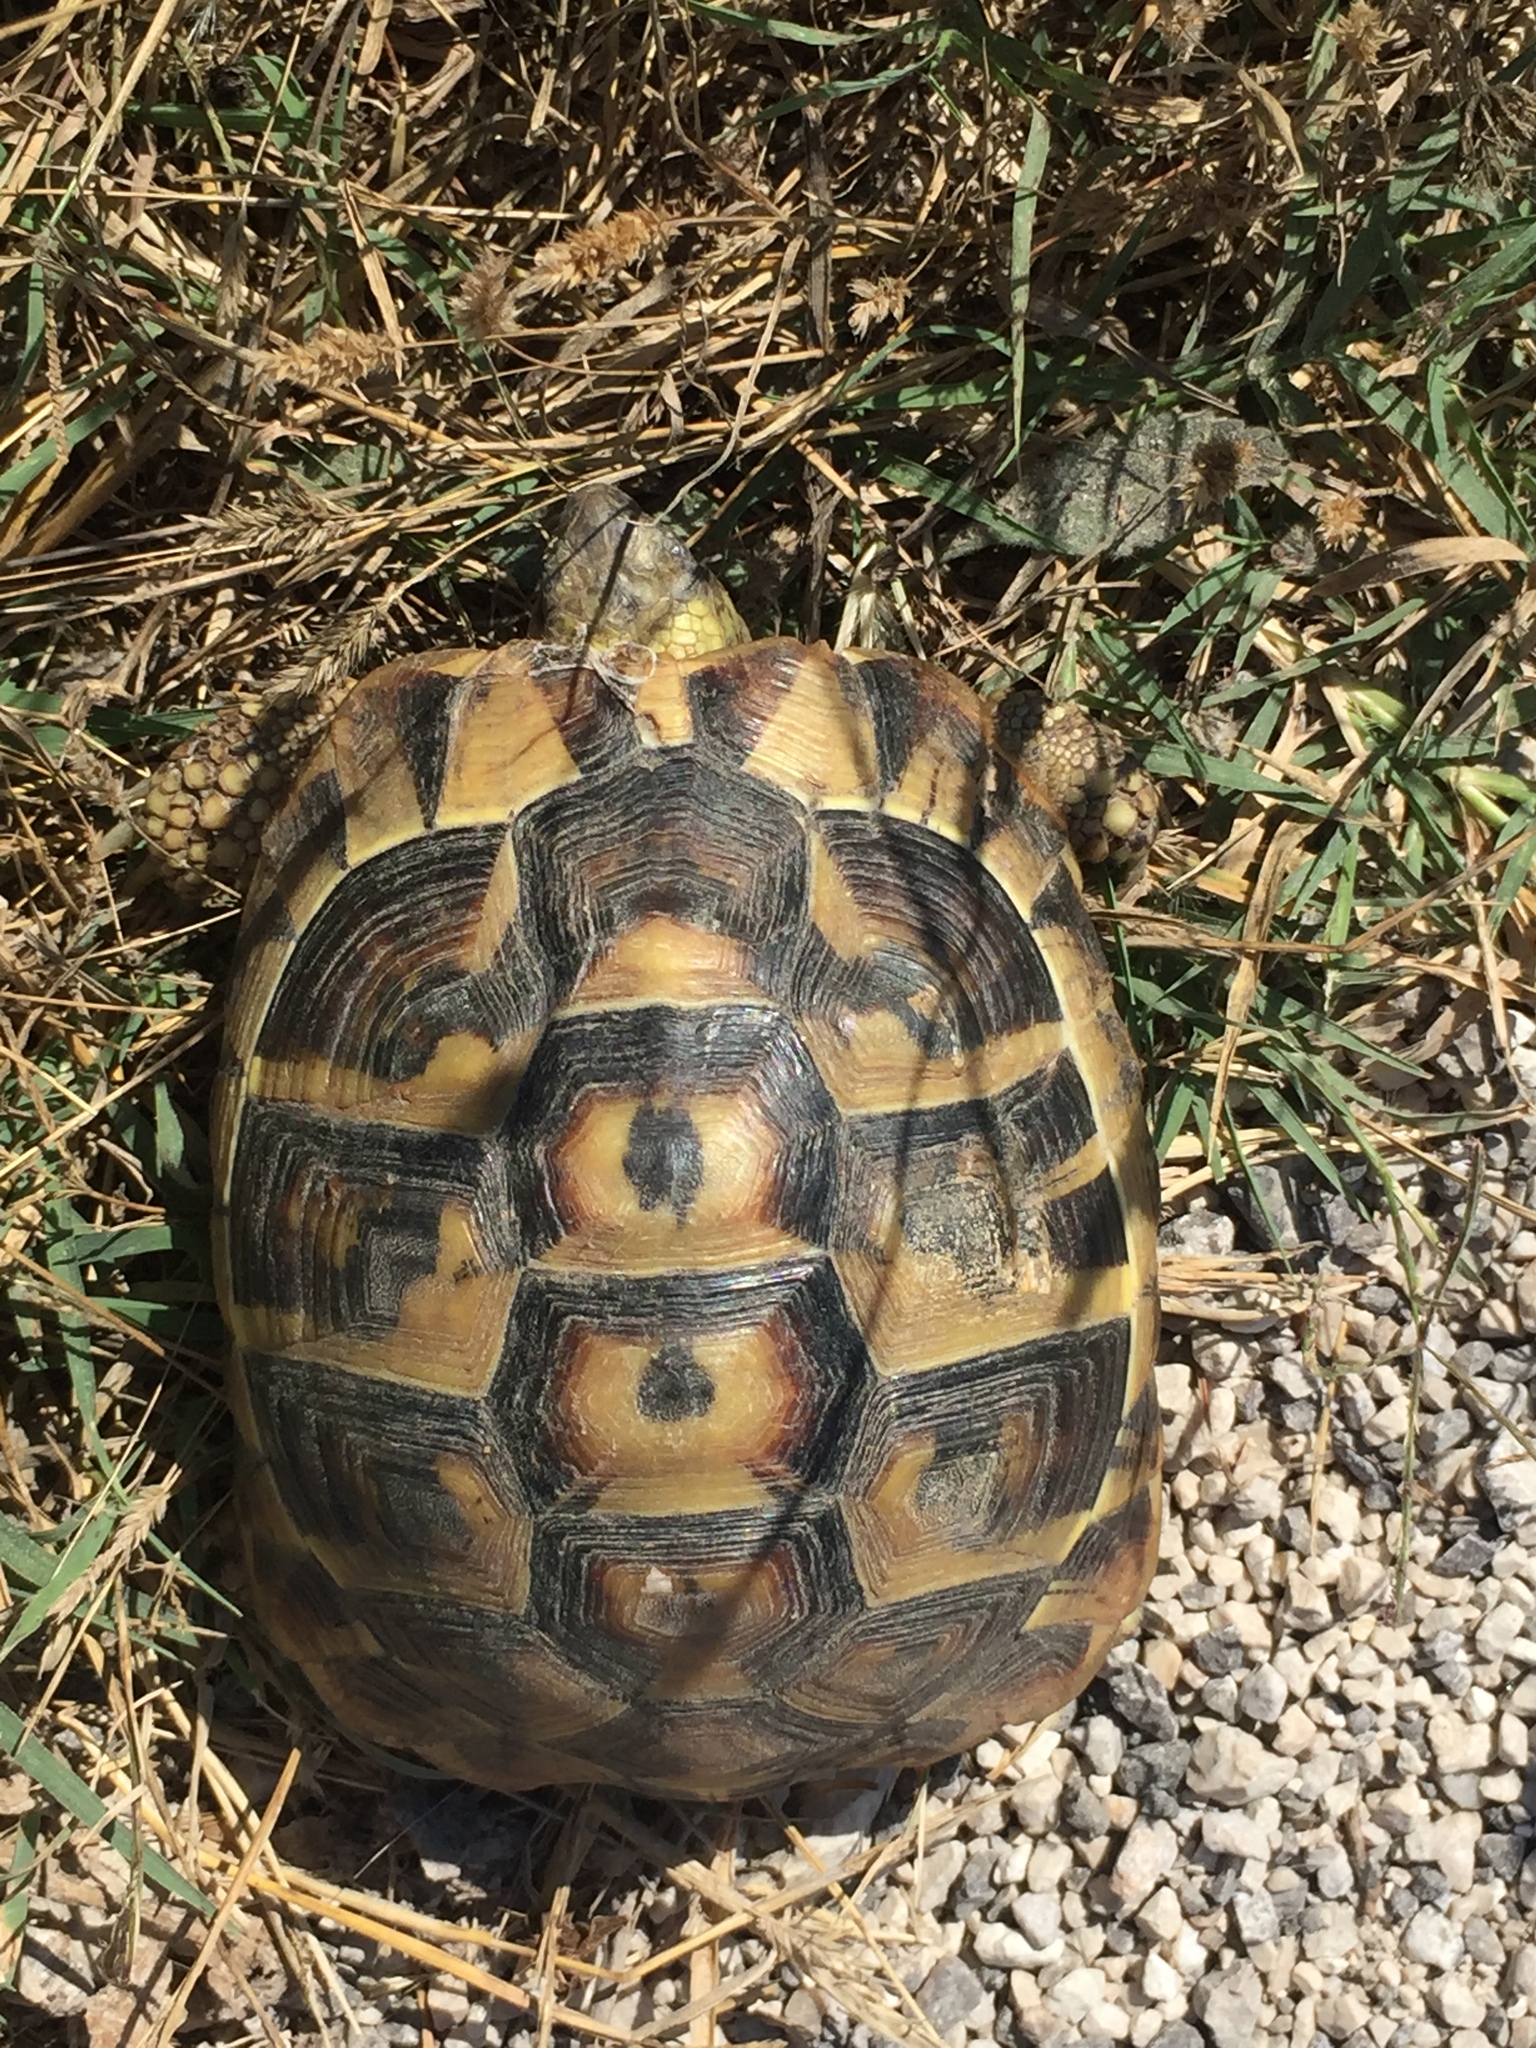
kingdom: Animalia
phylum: Chordata
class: Testudines
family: Testudinidae
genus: Testudo
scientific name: Testudo hermanni
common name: Hermann's tortoise
